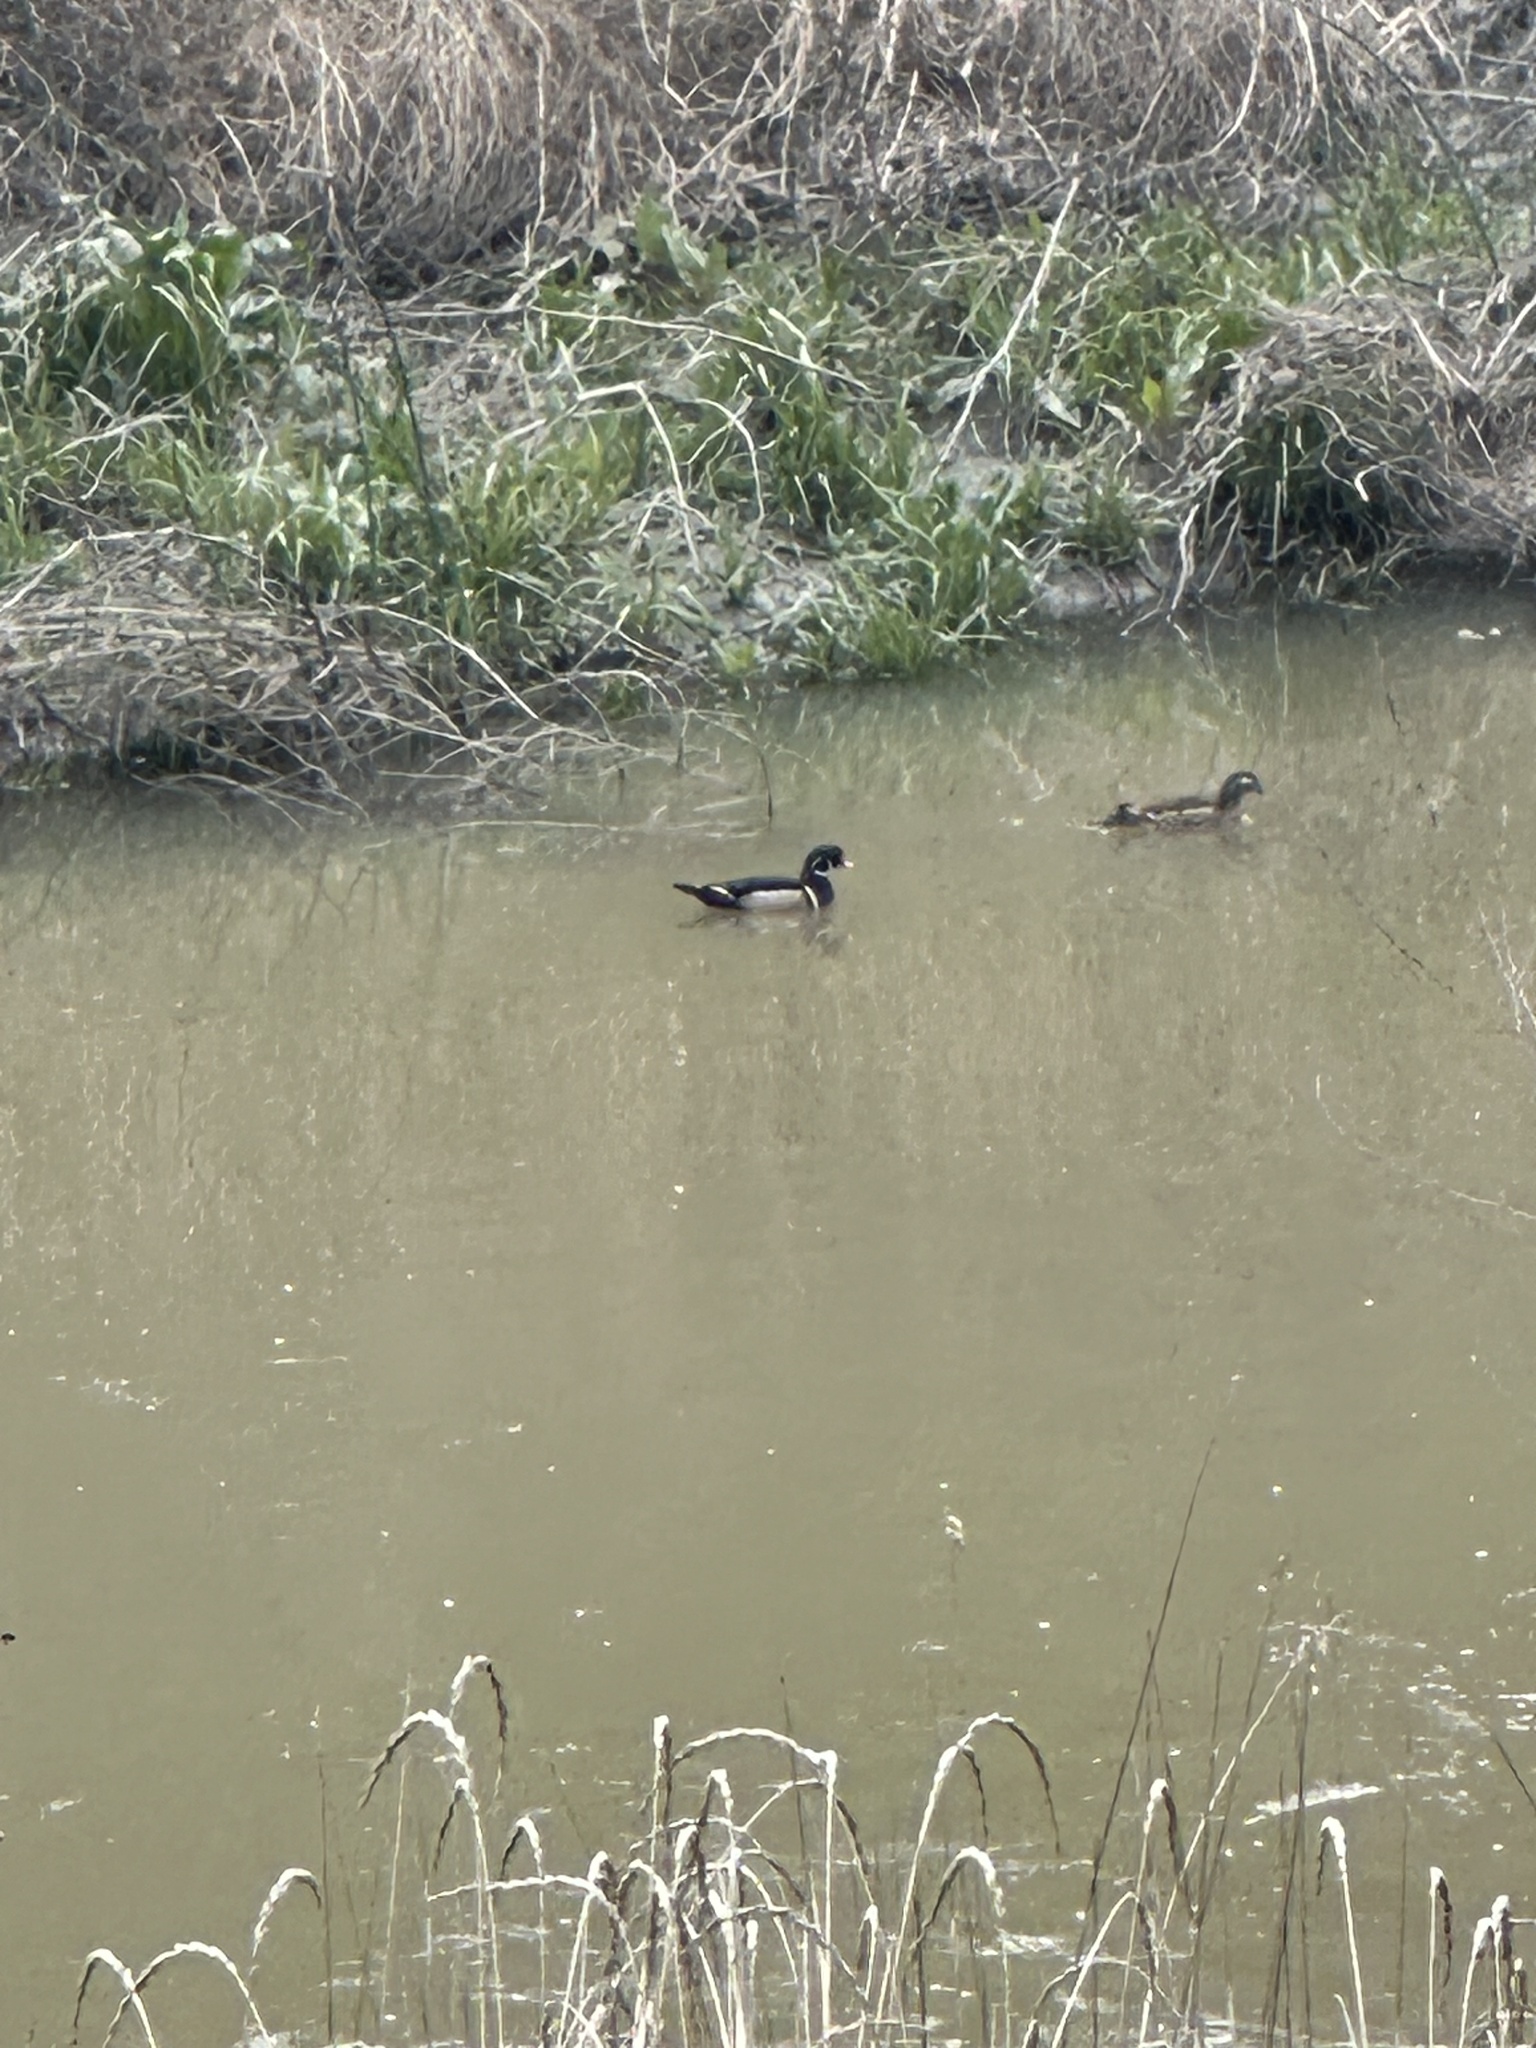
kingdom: Animalia
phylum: Chordata
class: Aves
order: Anseriformes
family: Anatidae
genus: Aix
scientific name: Aix sponsa
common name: Wood duck
